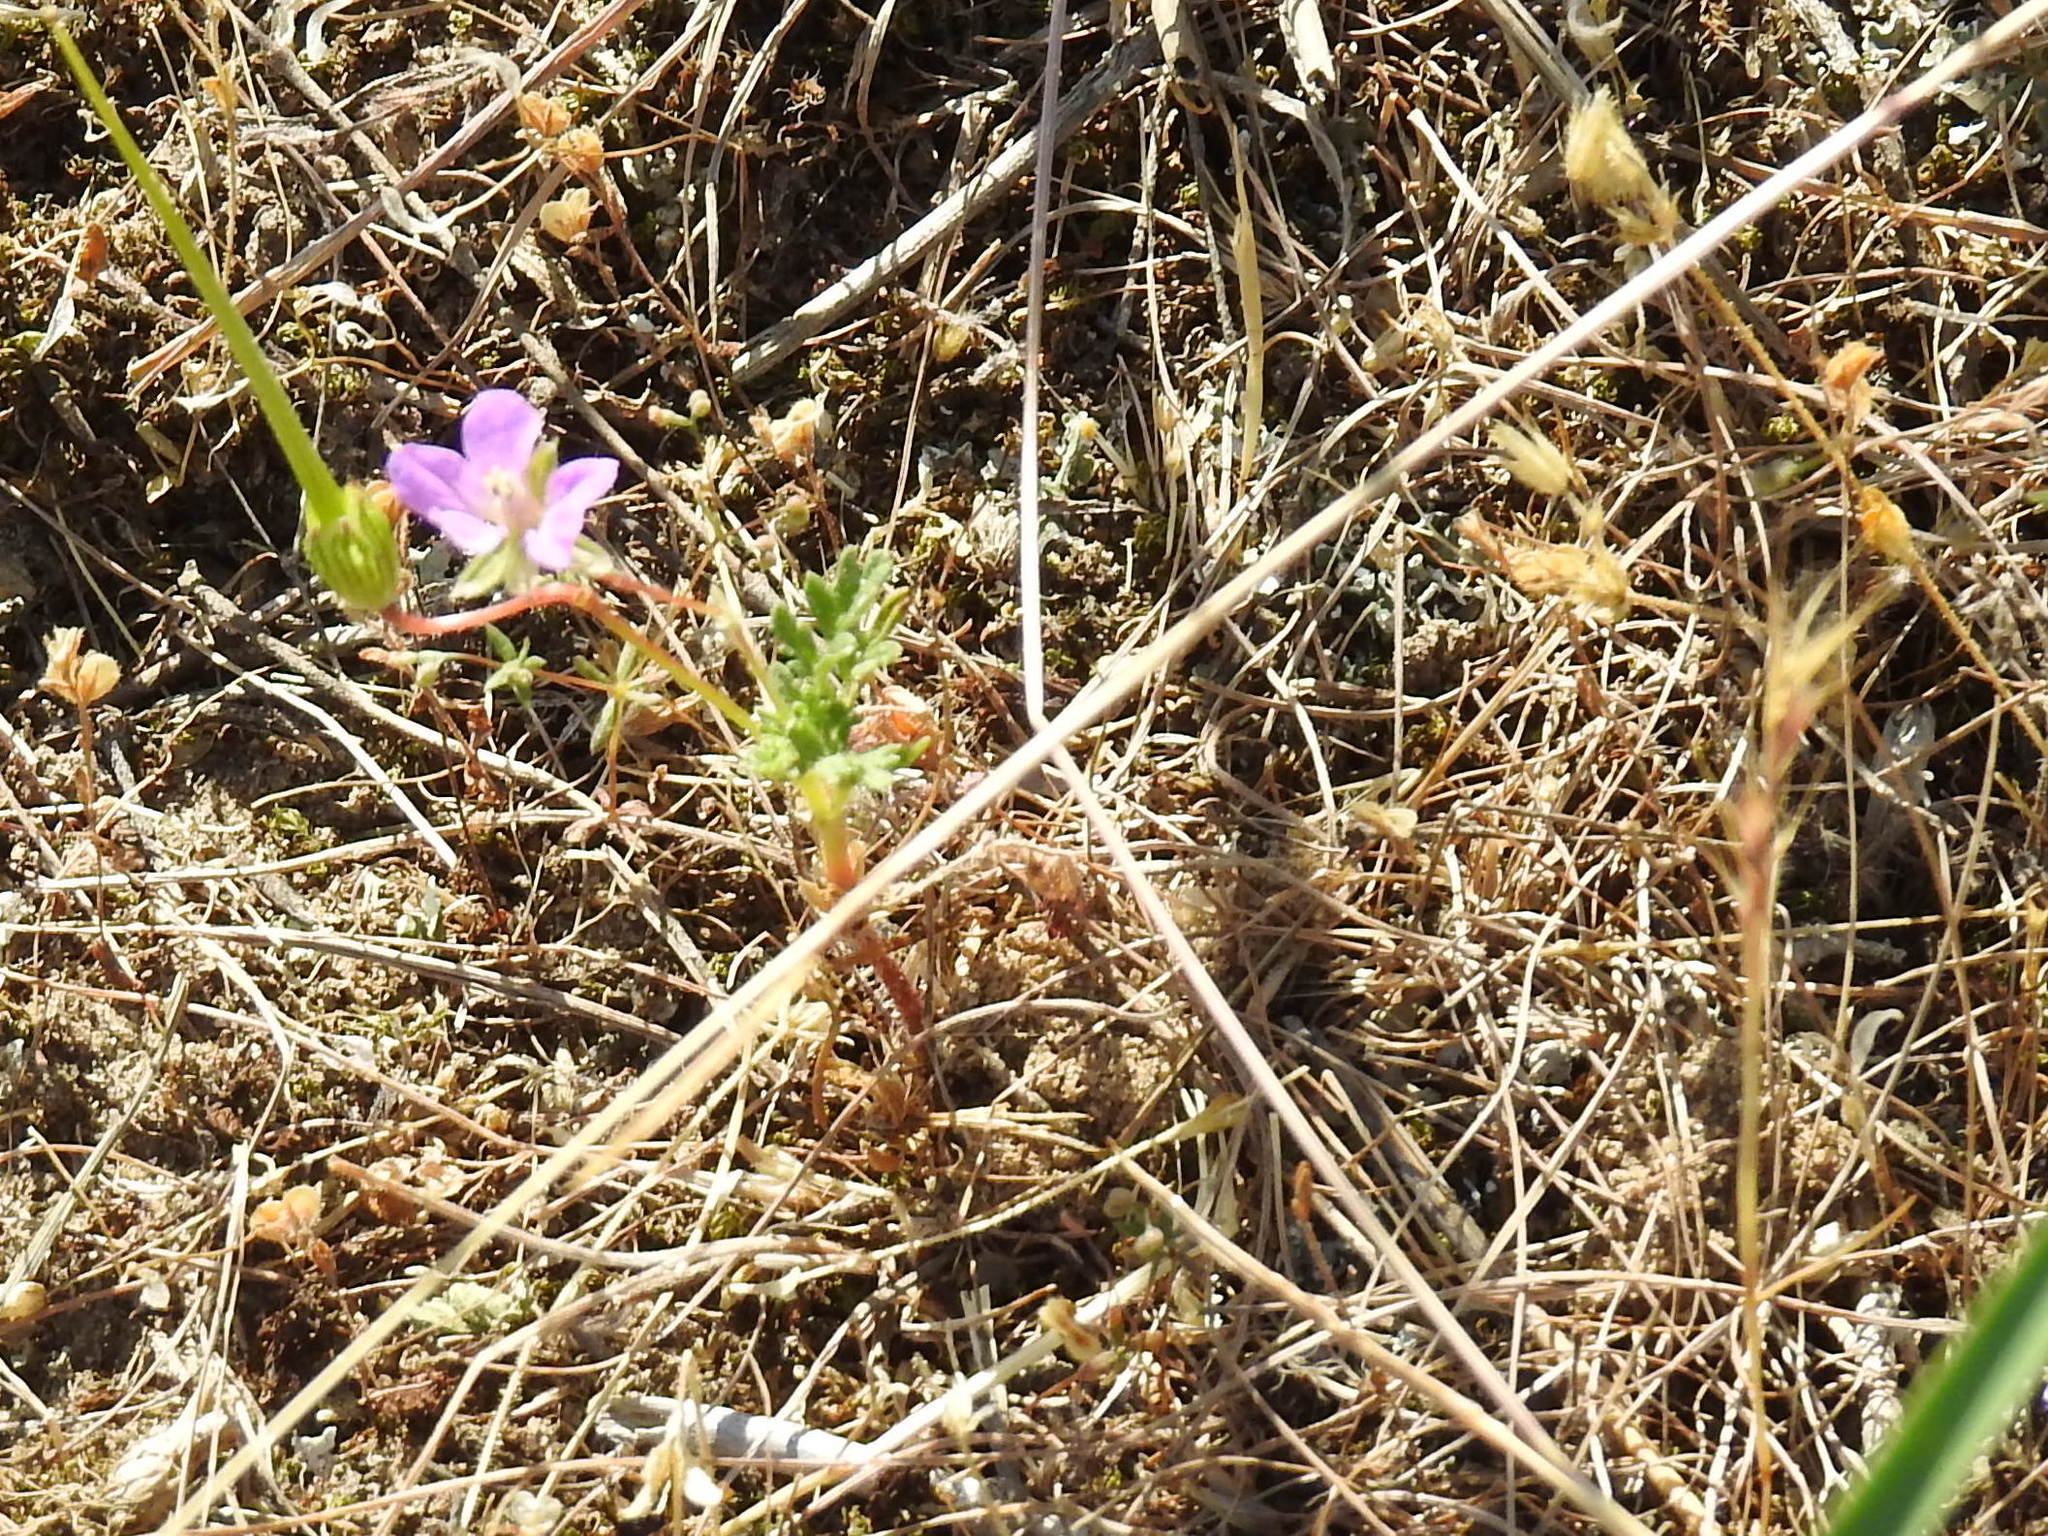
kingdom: Plantae
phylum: Tracheophyta
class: Magnoliopsida
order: Geraniales
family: Geraniaceae
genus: Erodium
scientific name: Erodium ciconium
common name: Common stork's bill
